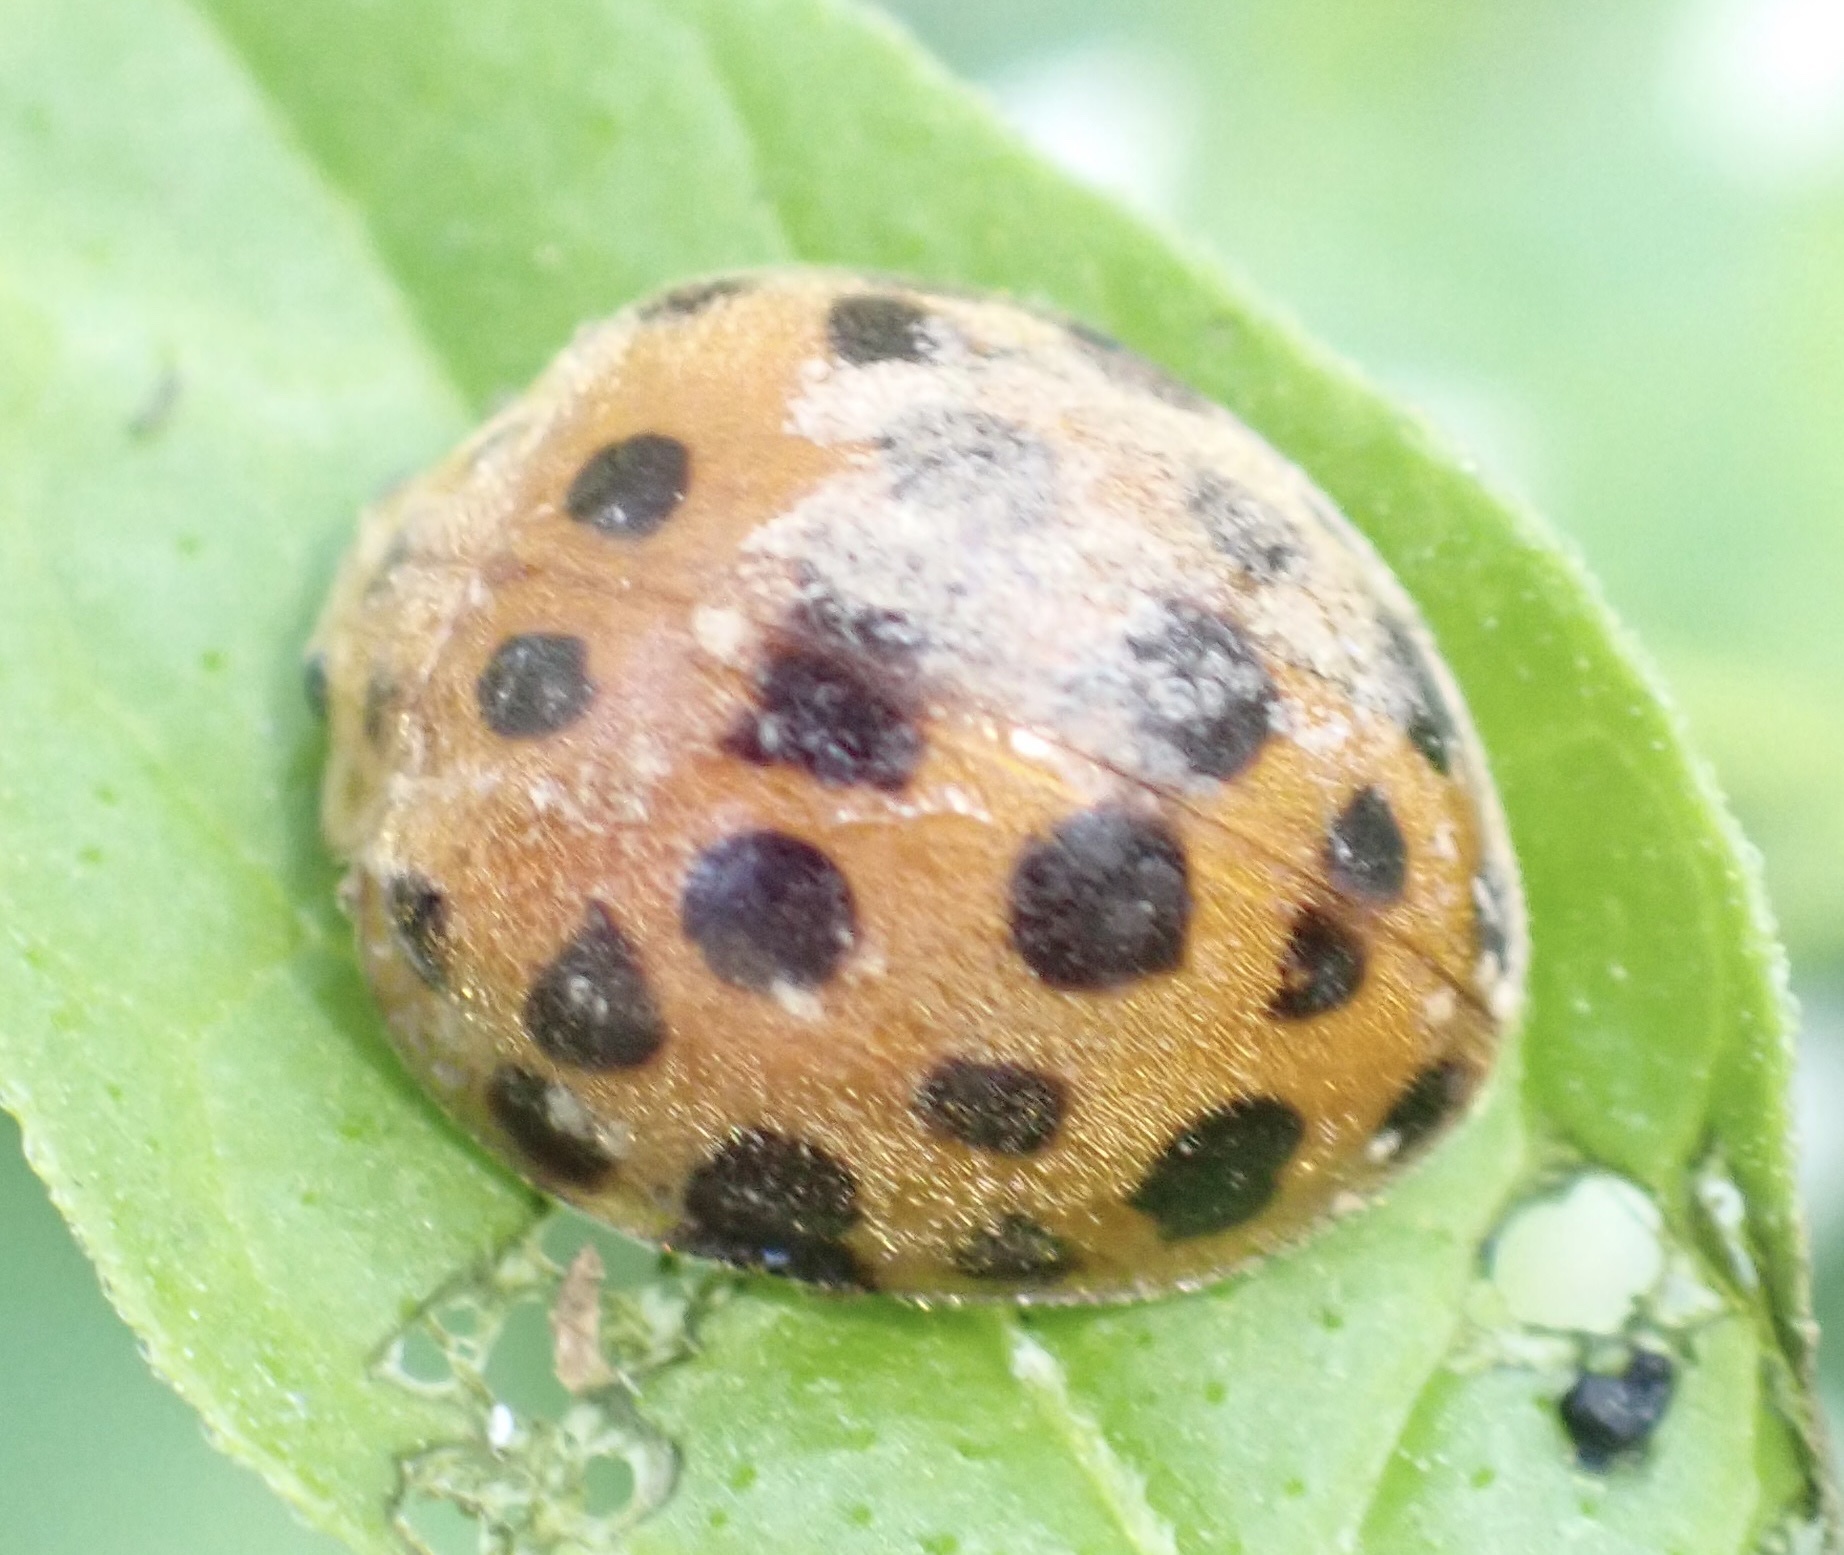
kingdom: Animalia
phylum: Arthropoda
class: Insecta
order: Coleoptera
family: Coccinellidae
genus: Henosepilachna
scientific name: Henosepilachna vigintioctopunctata
